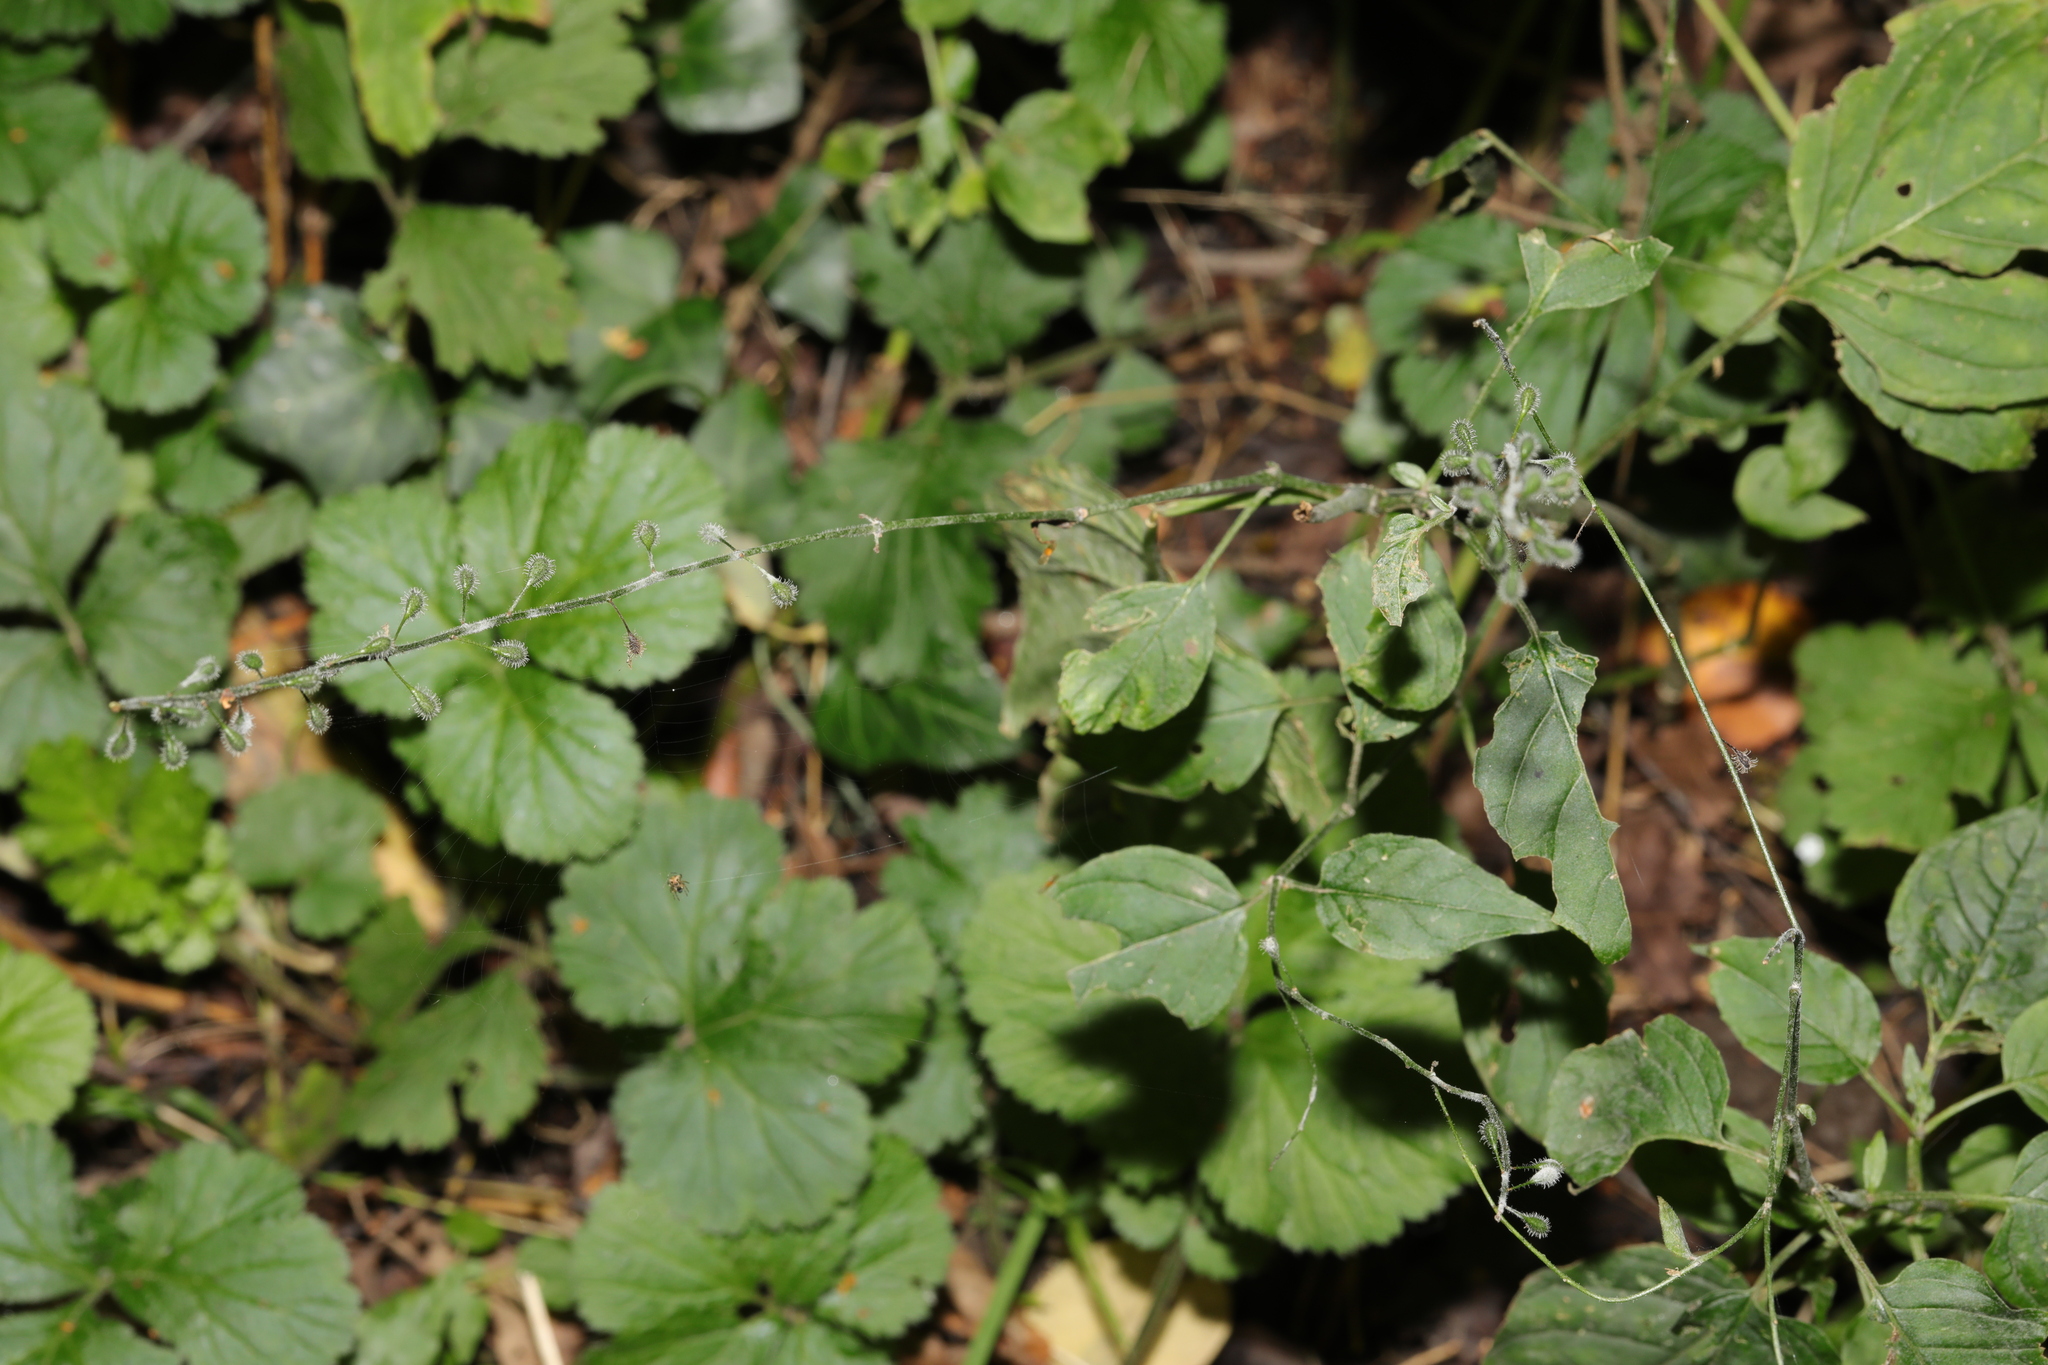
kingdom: Plantae
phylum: Tracheophyta
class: Magnoliopsida
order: Myrtales
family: Onagraceae
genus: Circaea
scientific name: Circaea lutetiana
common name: Enchanter's-nightshade
